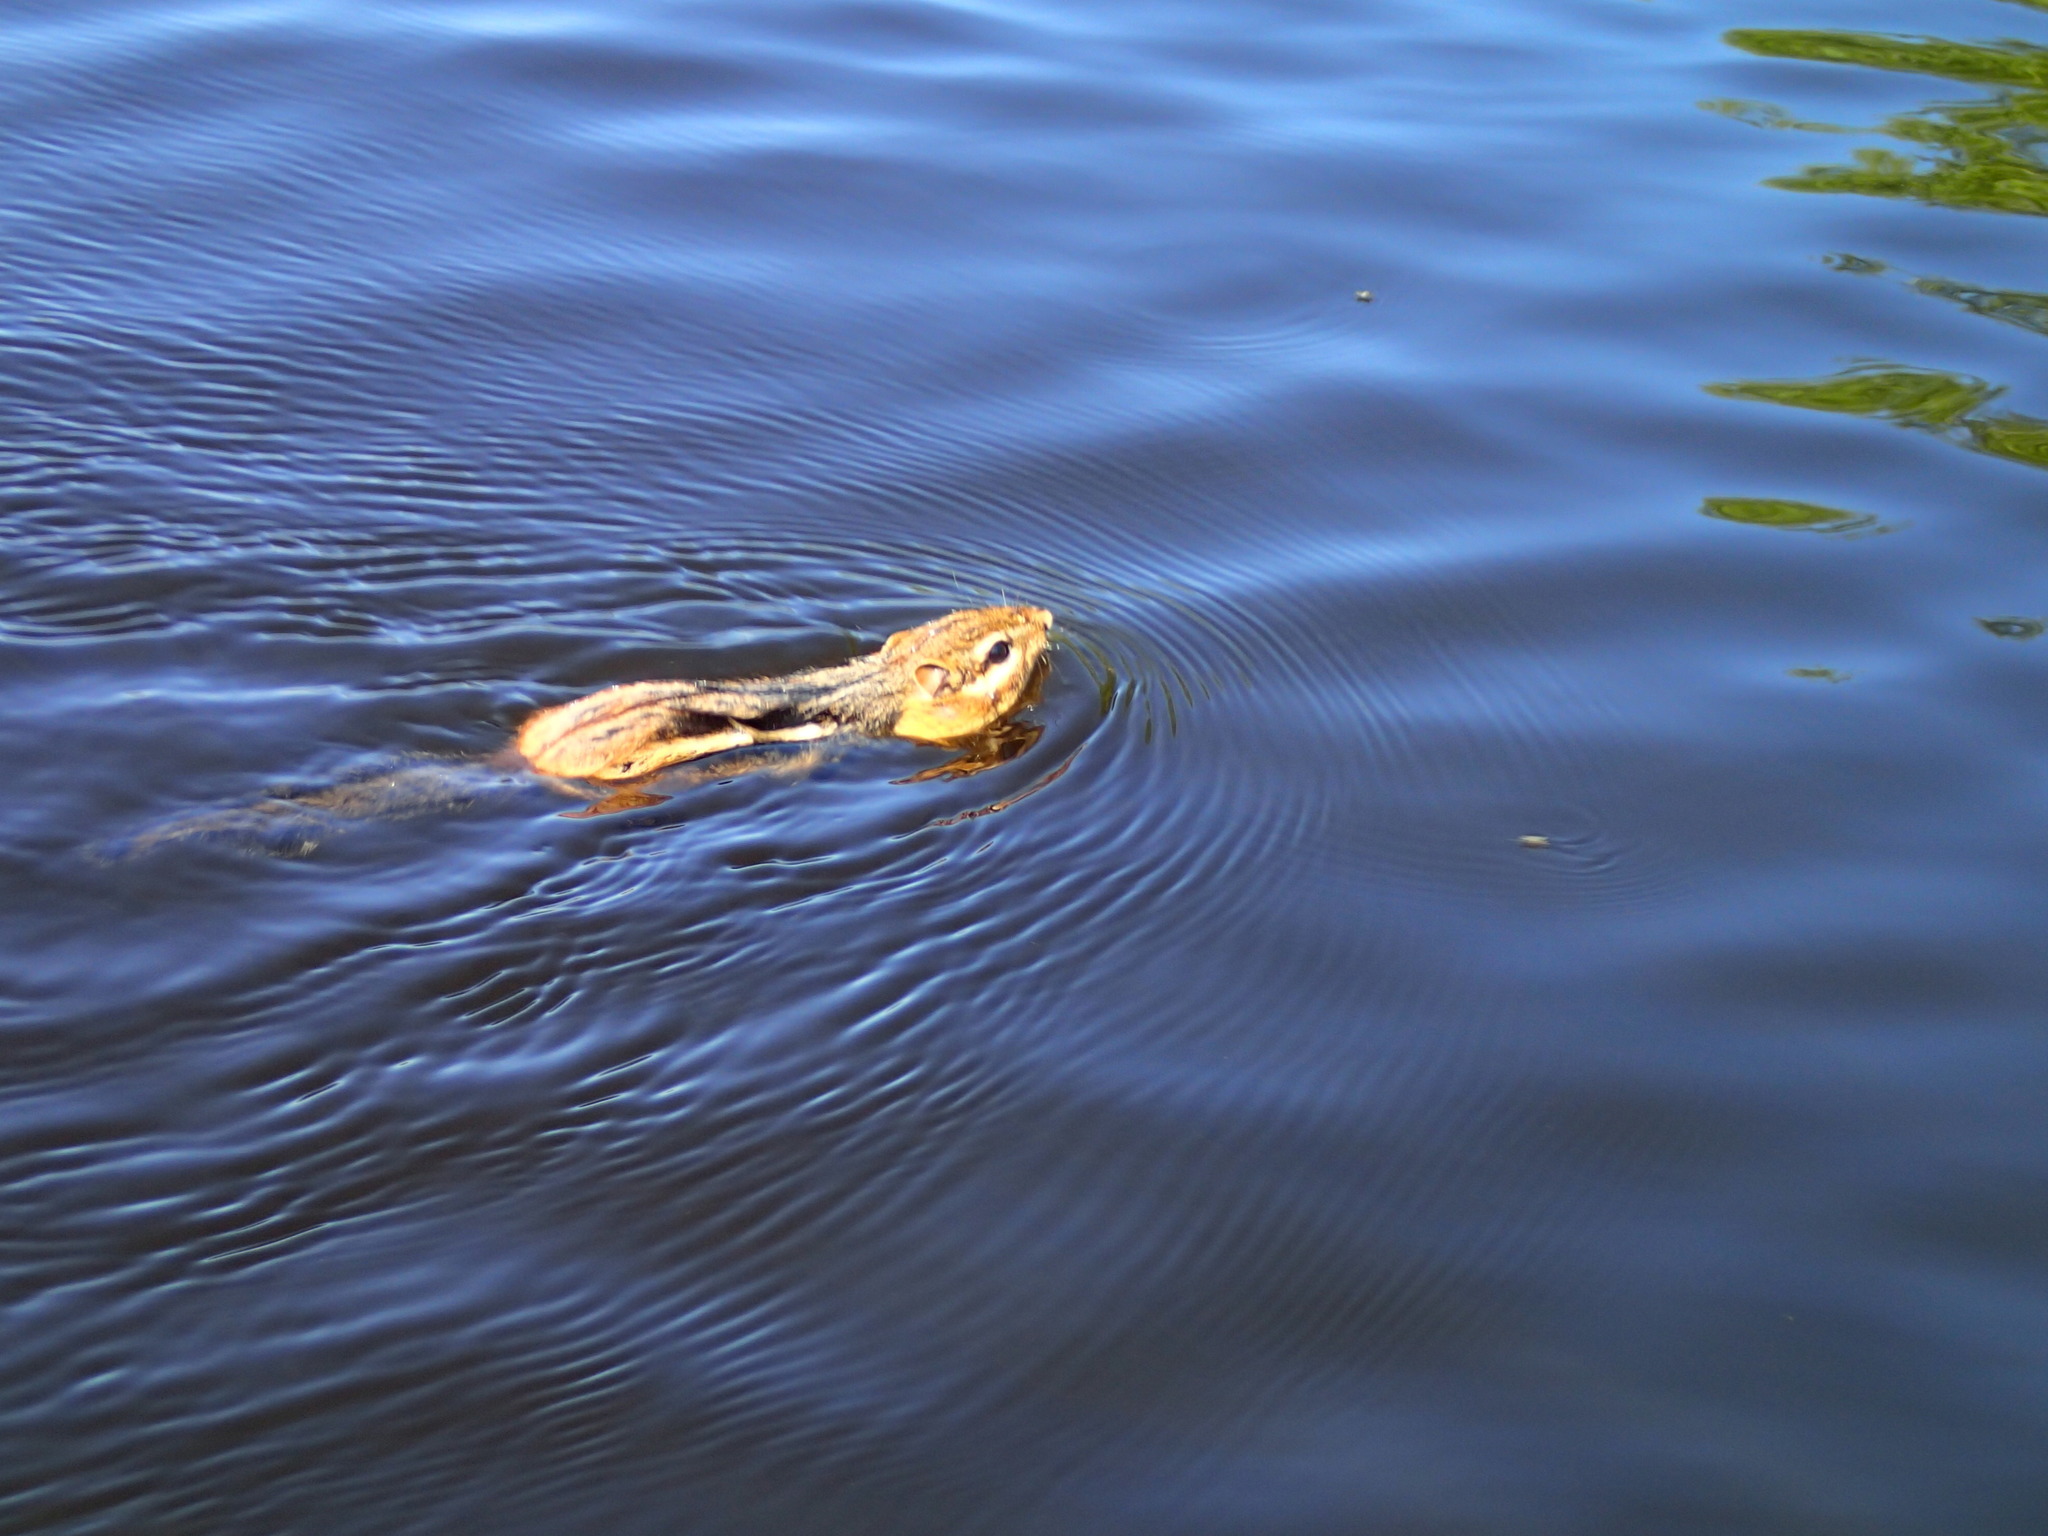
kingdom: Animalia
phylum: Chordata
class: Mammalia
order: Rodentia
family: Sciuridae
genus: Tamias
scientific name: Tamias striatus
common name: Eastern chipmunk
